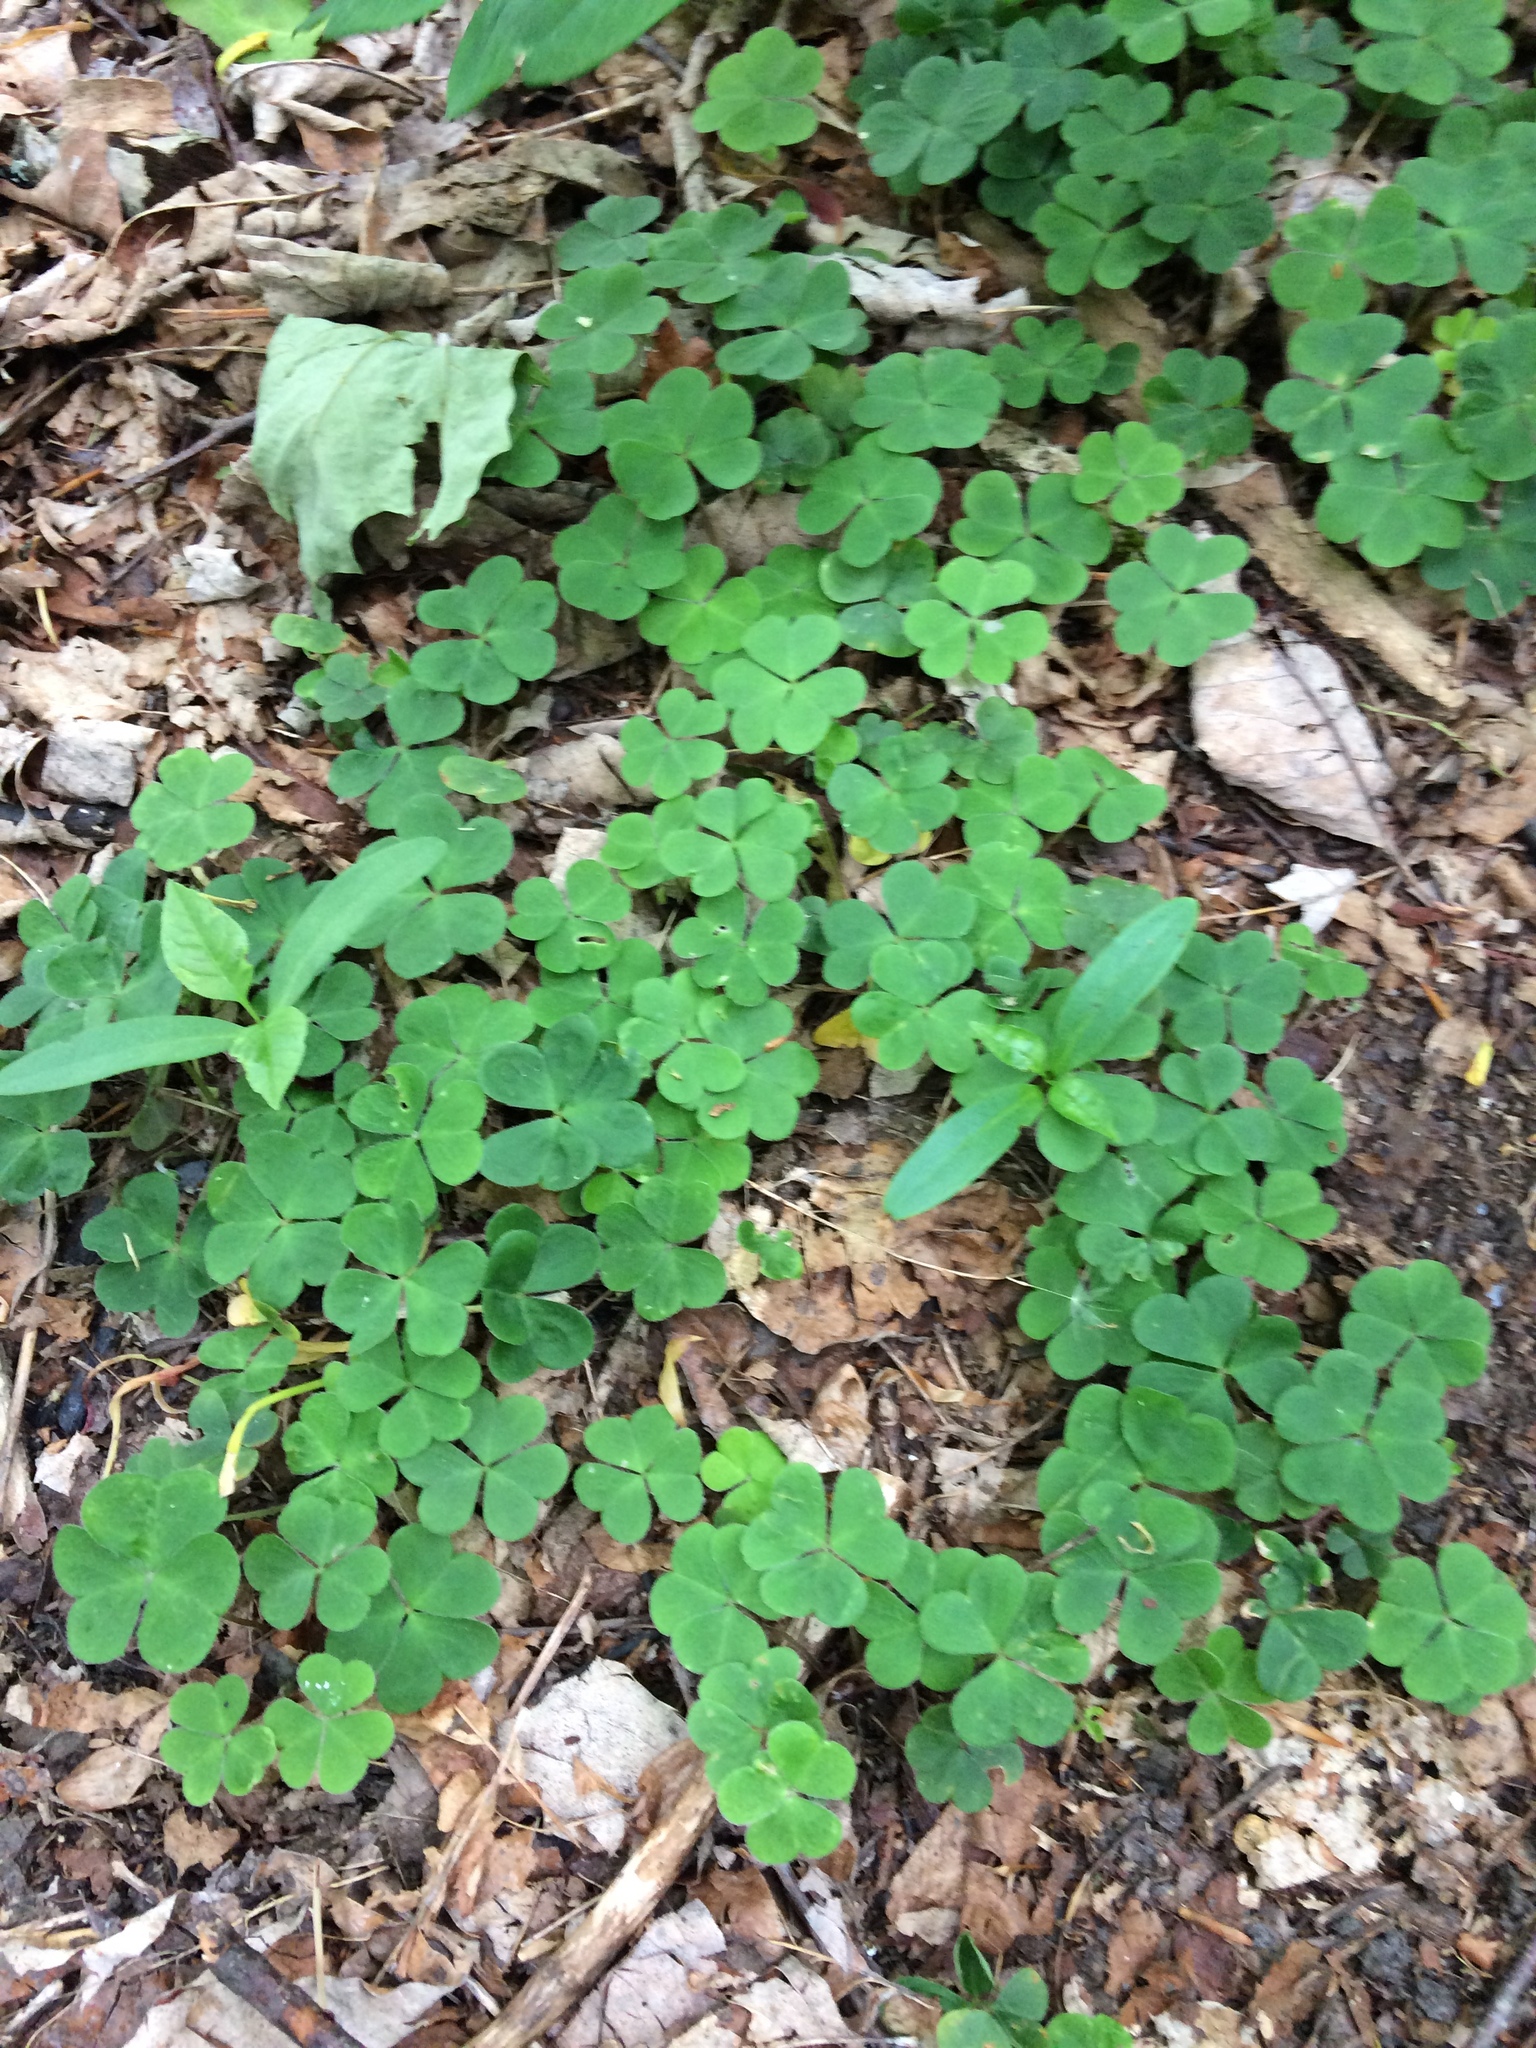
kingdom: Plantae
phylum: Tracheophyta
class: Magnoliopsida
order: Oxalidales
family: Oxalidaceae
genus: Oxalis
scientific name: Oxalis montana
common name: American wood-sorrel
